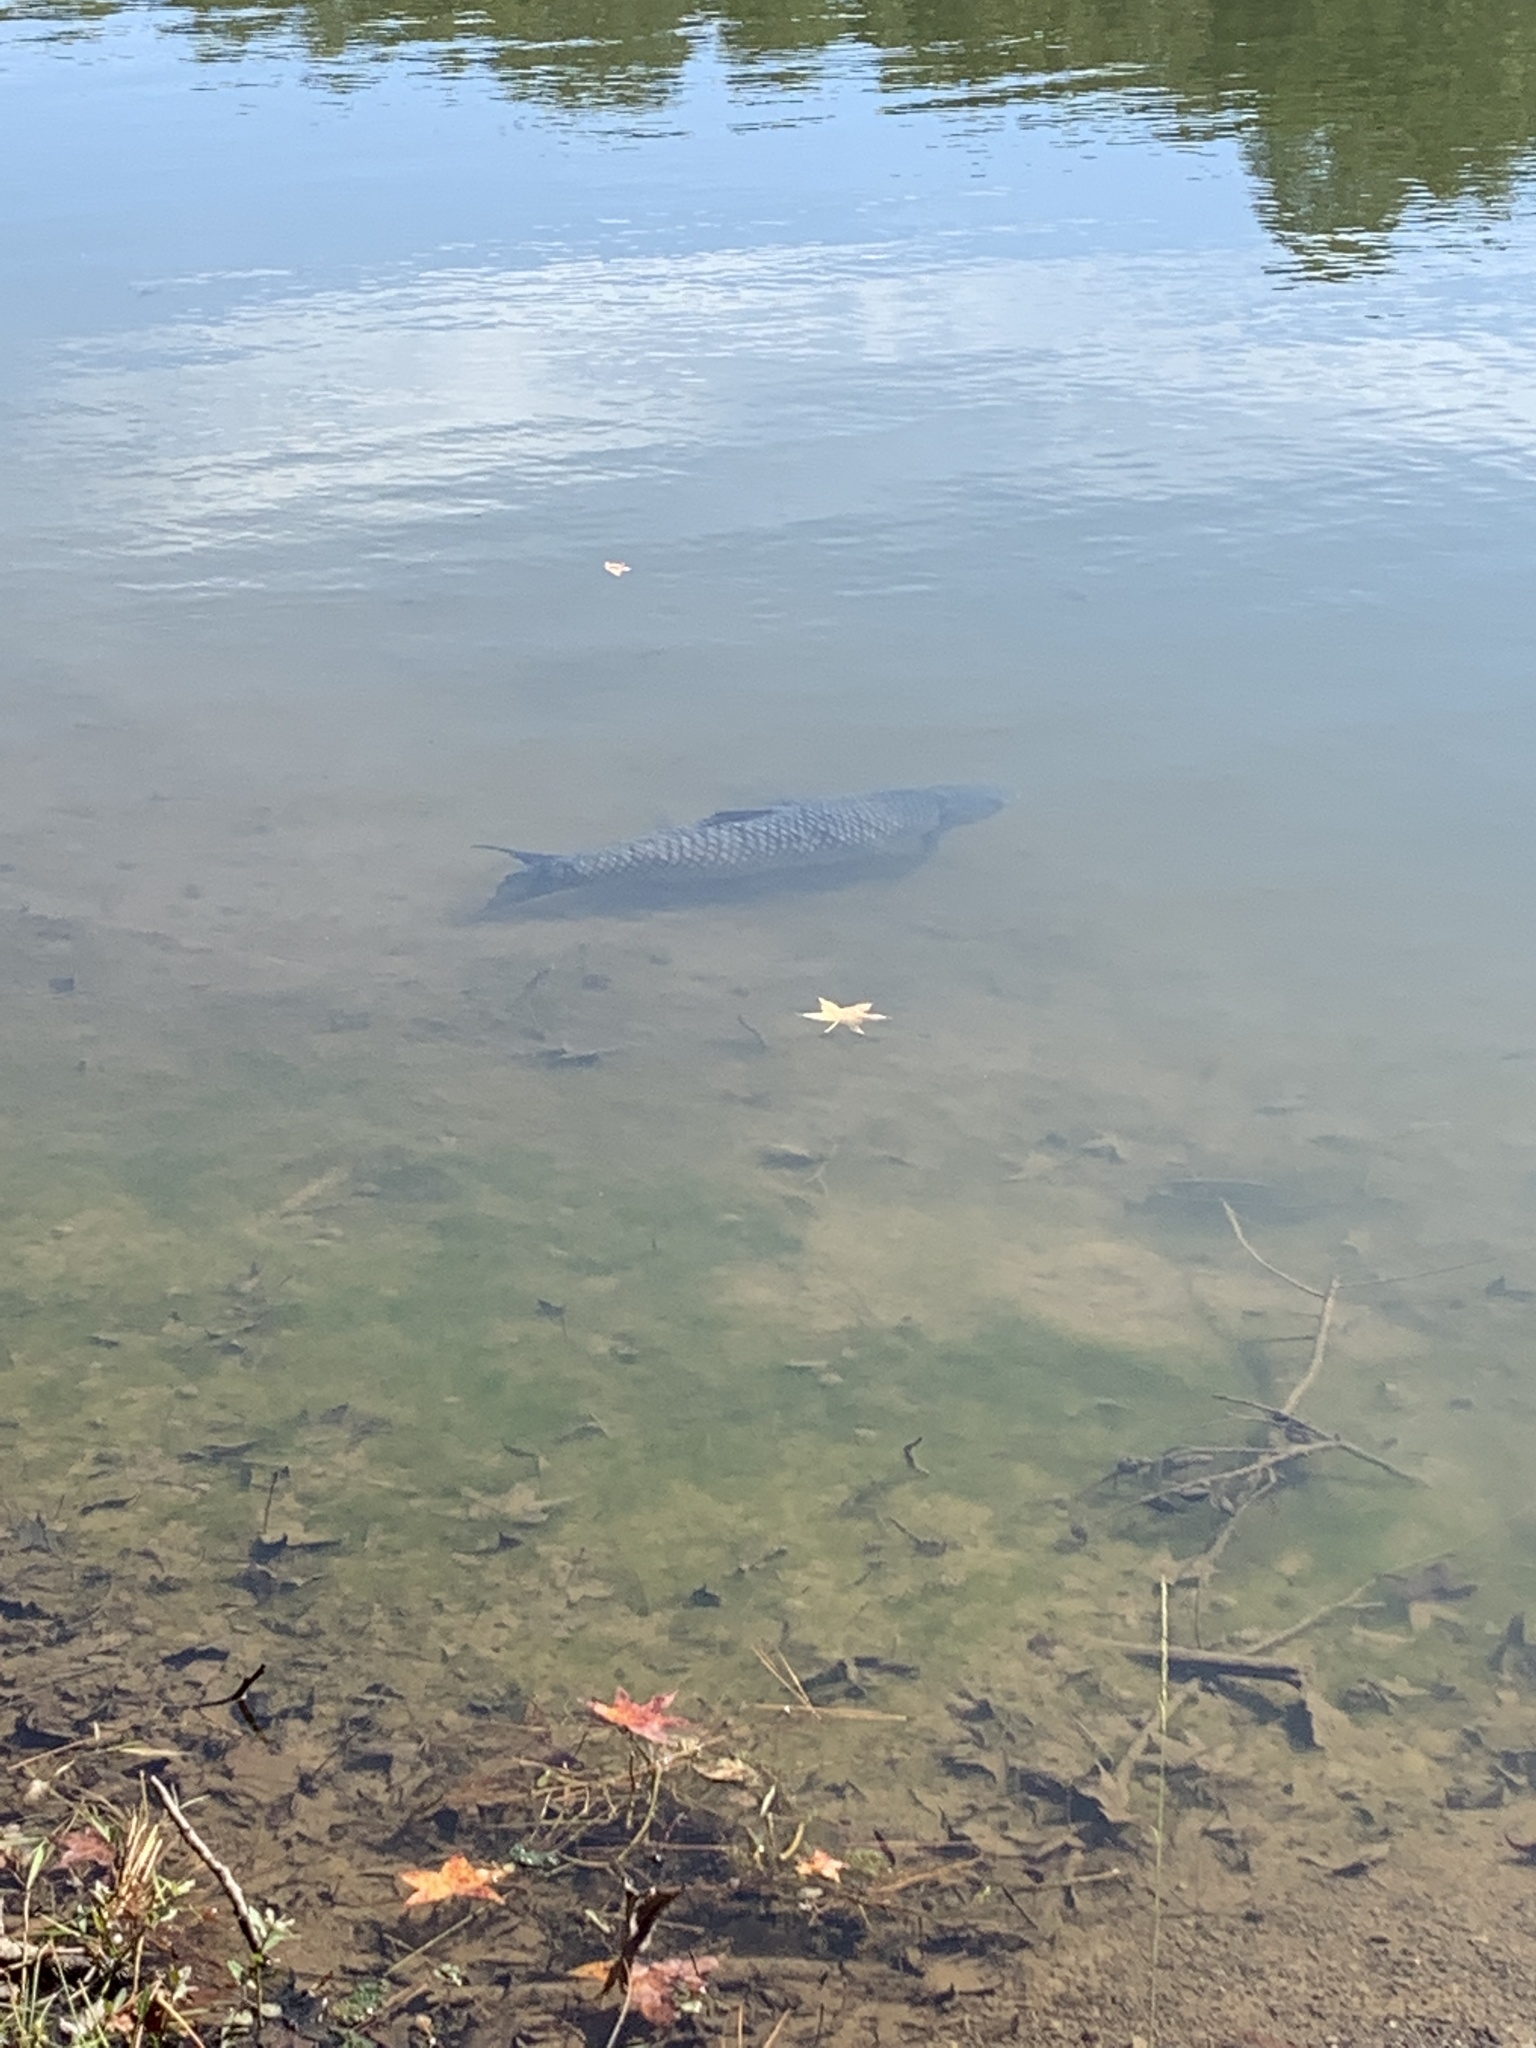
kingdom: Animalia
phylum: Chordata
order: Cypriniformes
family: Cyprinidae
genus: Ctenopharyngodon
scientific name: Ctenopharyngodon idella
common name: Grass carp
